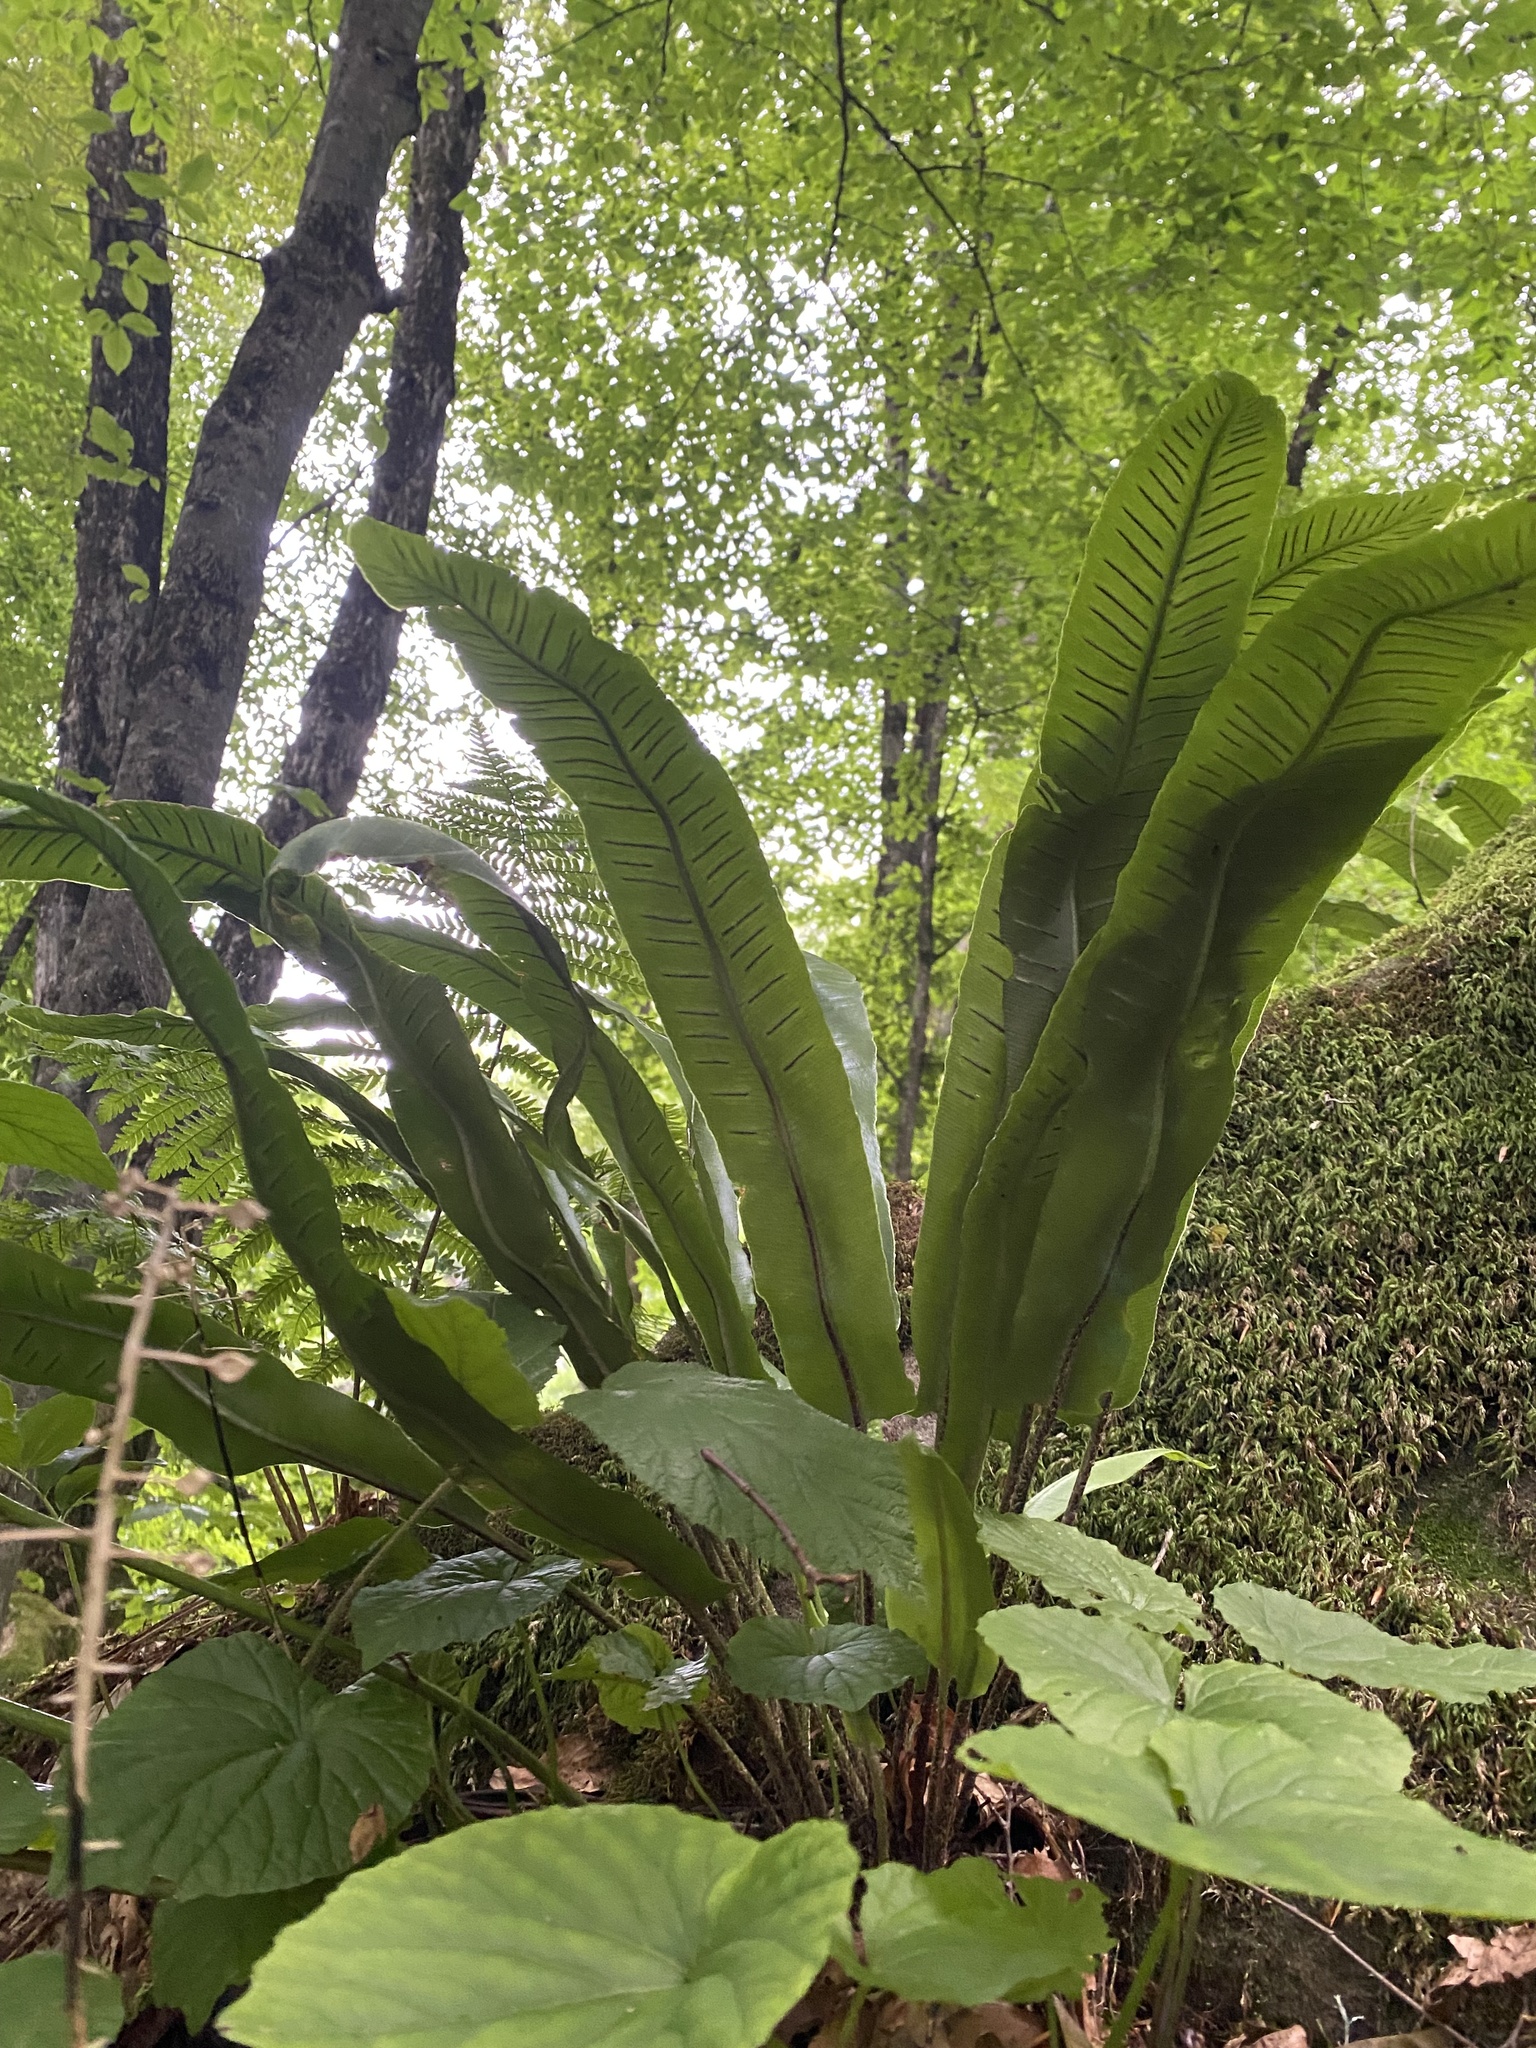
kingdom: Plantae
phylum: Tracheophyta
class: Polypodiopsida
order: Polypodiales
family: Aspleniaceae
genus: Asplenium
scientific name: Asplenium scolopendrium
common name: Hart's-tongue fern
